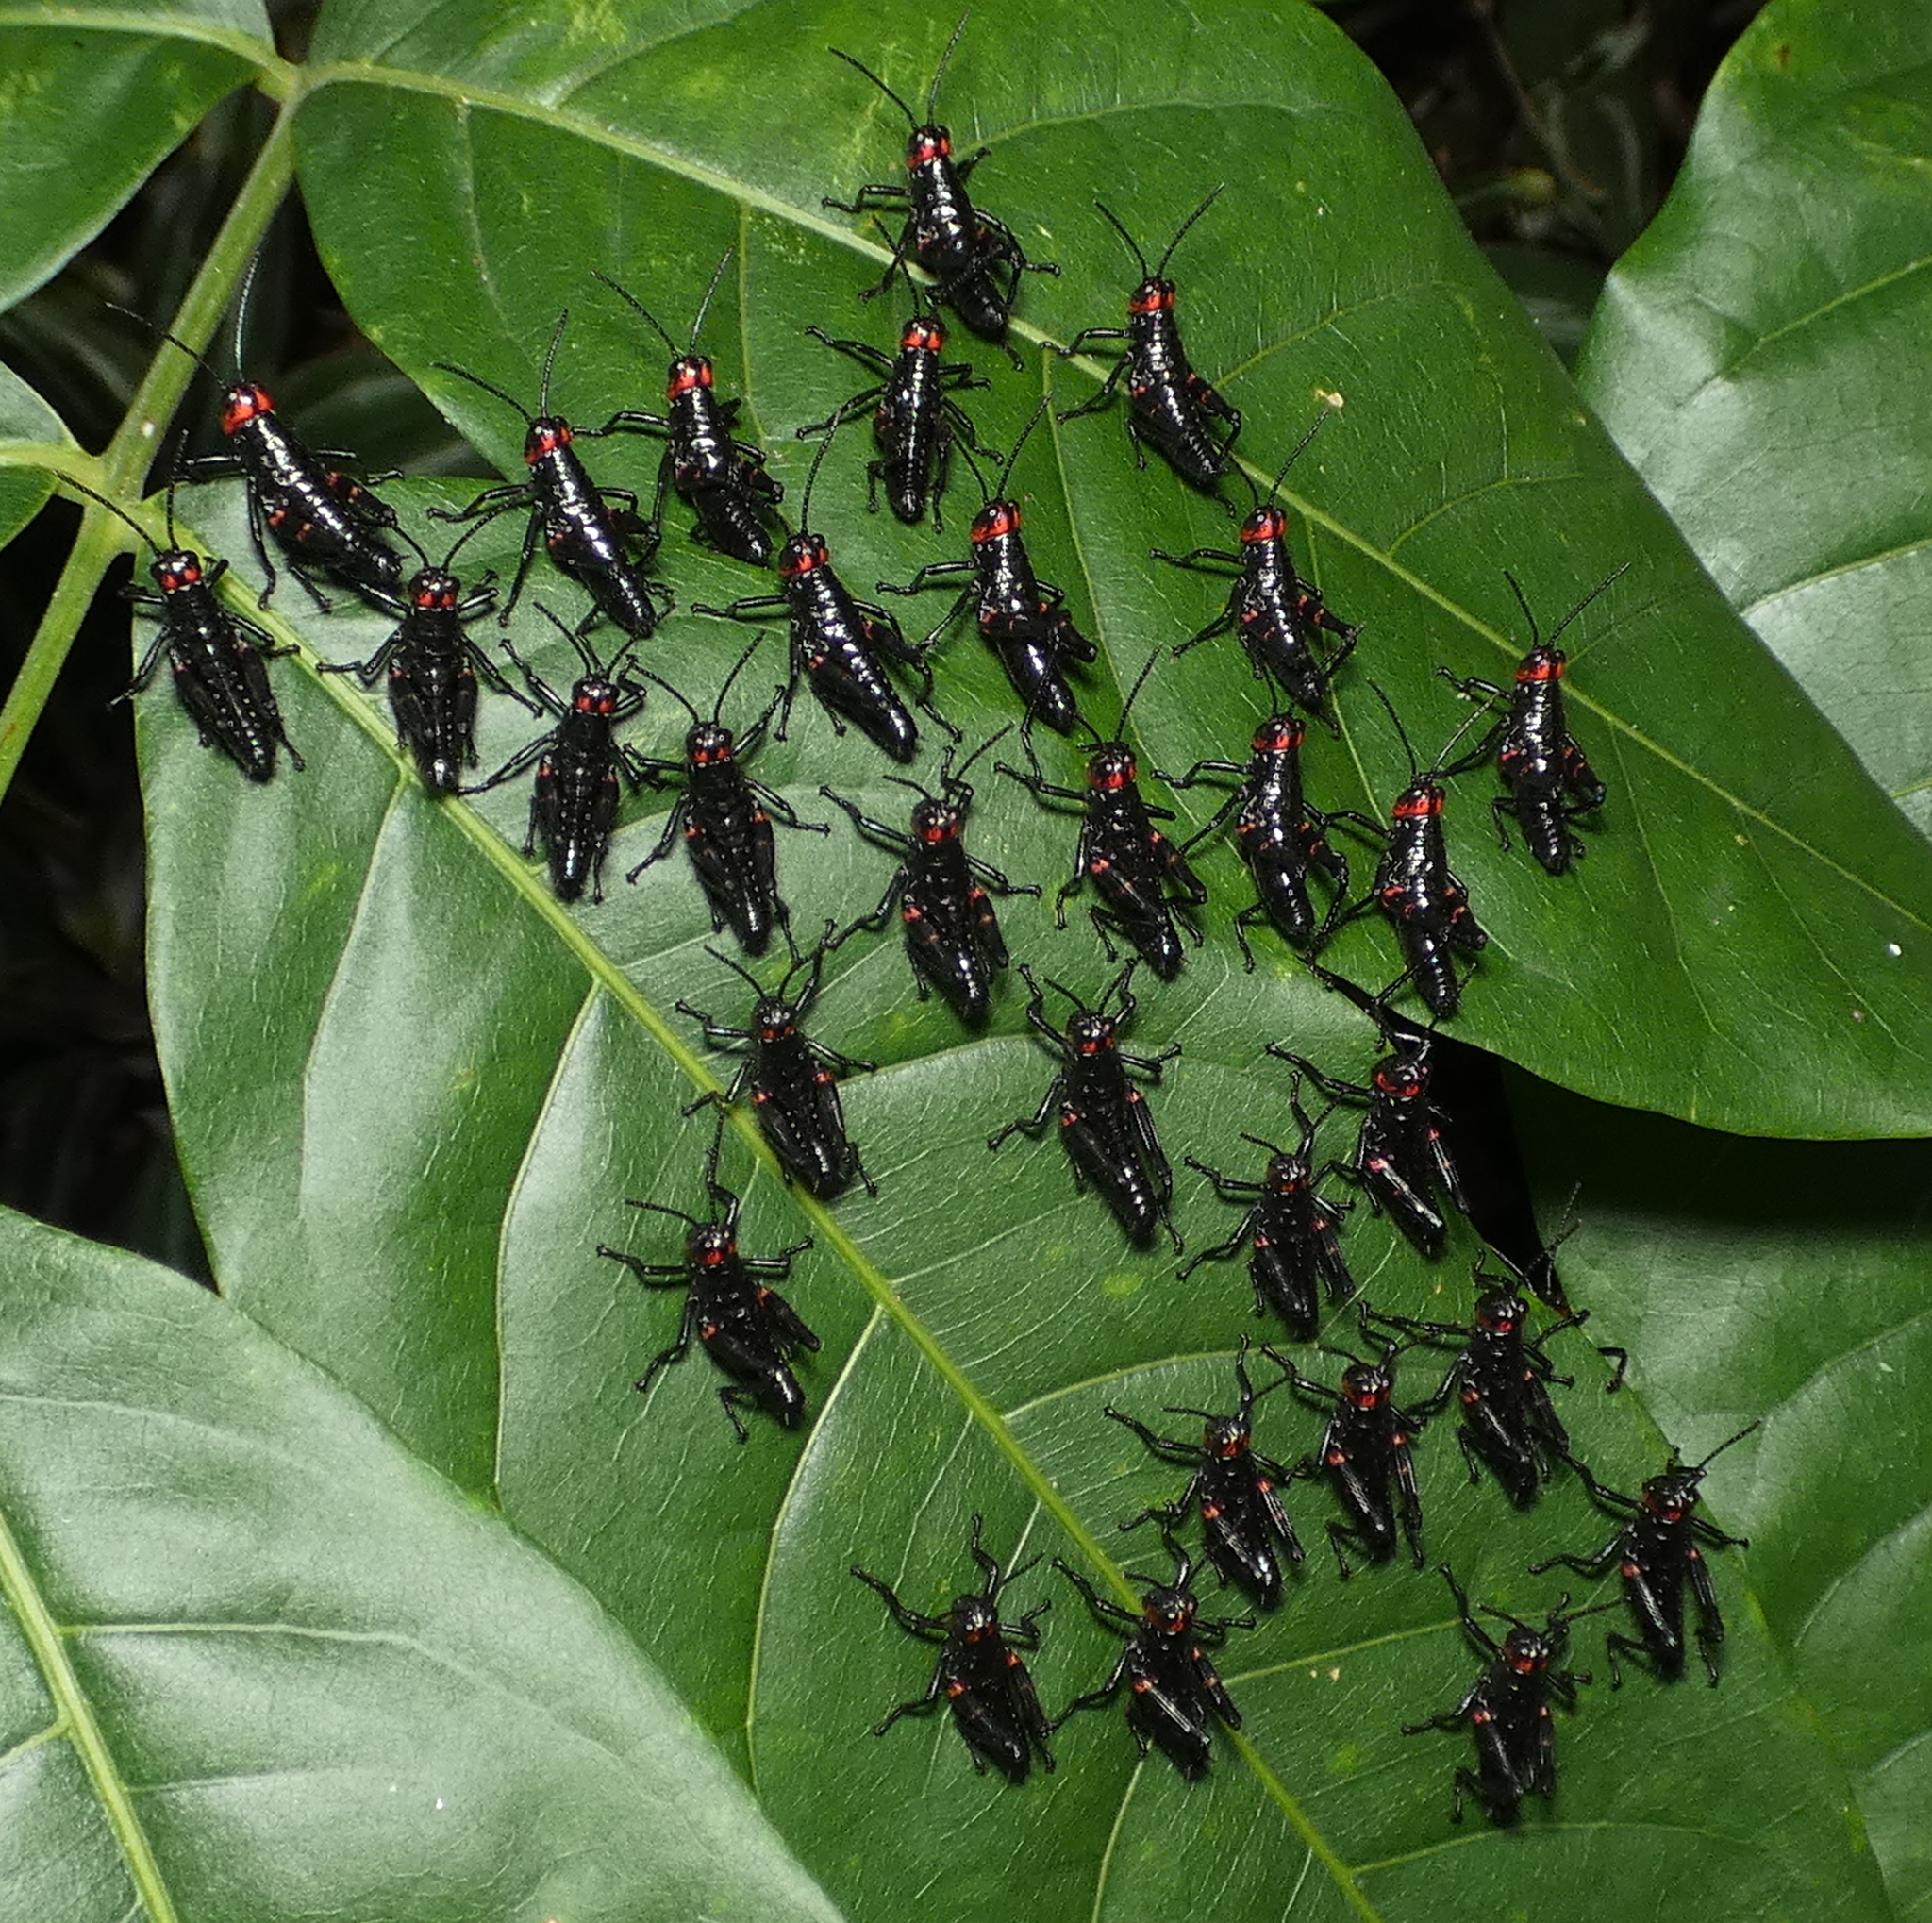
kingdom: Animalia
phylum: Arthropoda
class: Insecta
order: Orthoptera
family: Romaleidae
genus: Chromacris
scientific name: Chromacris speciosa
